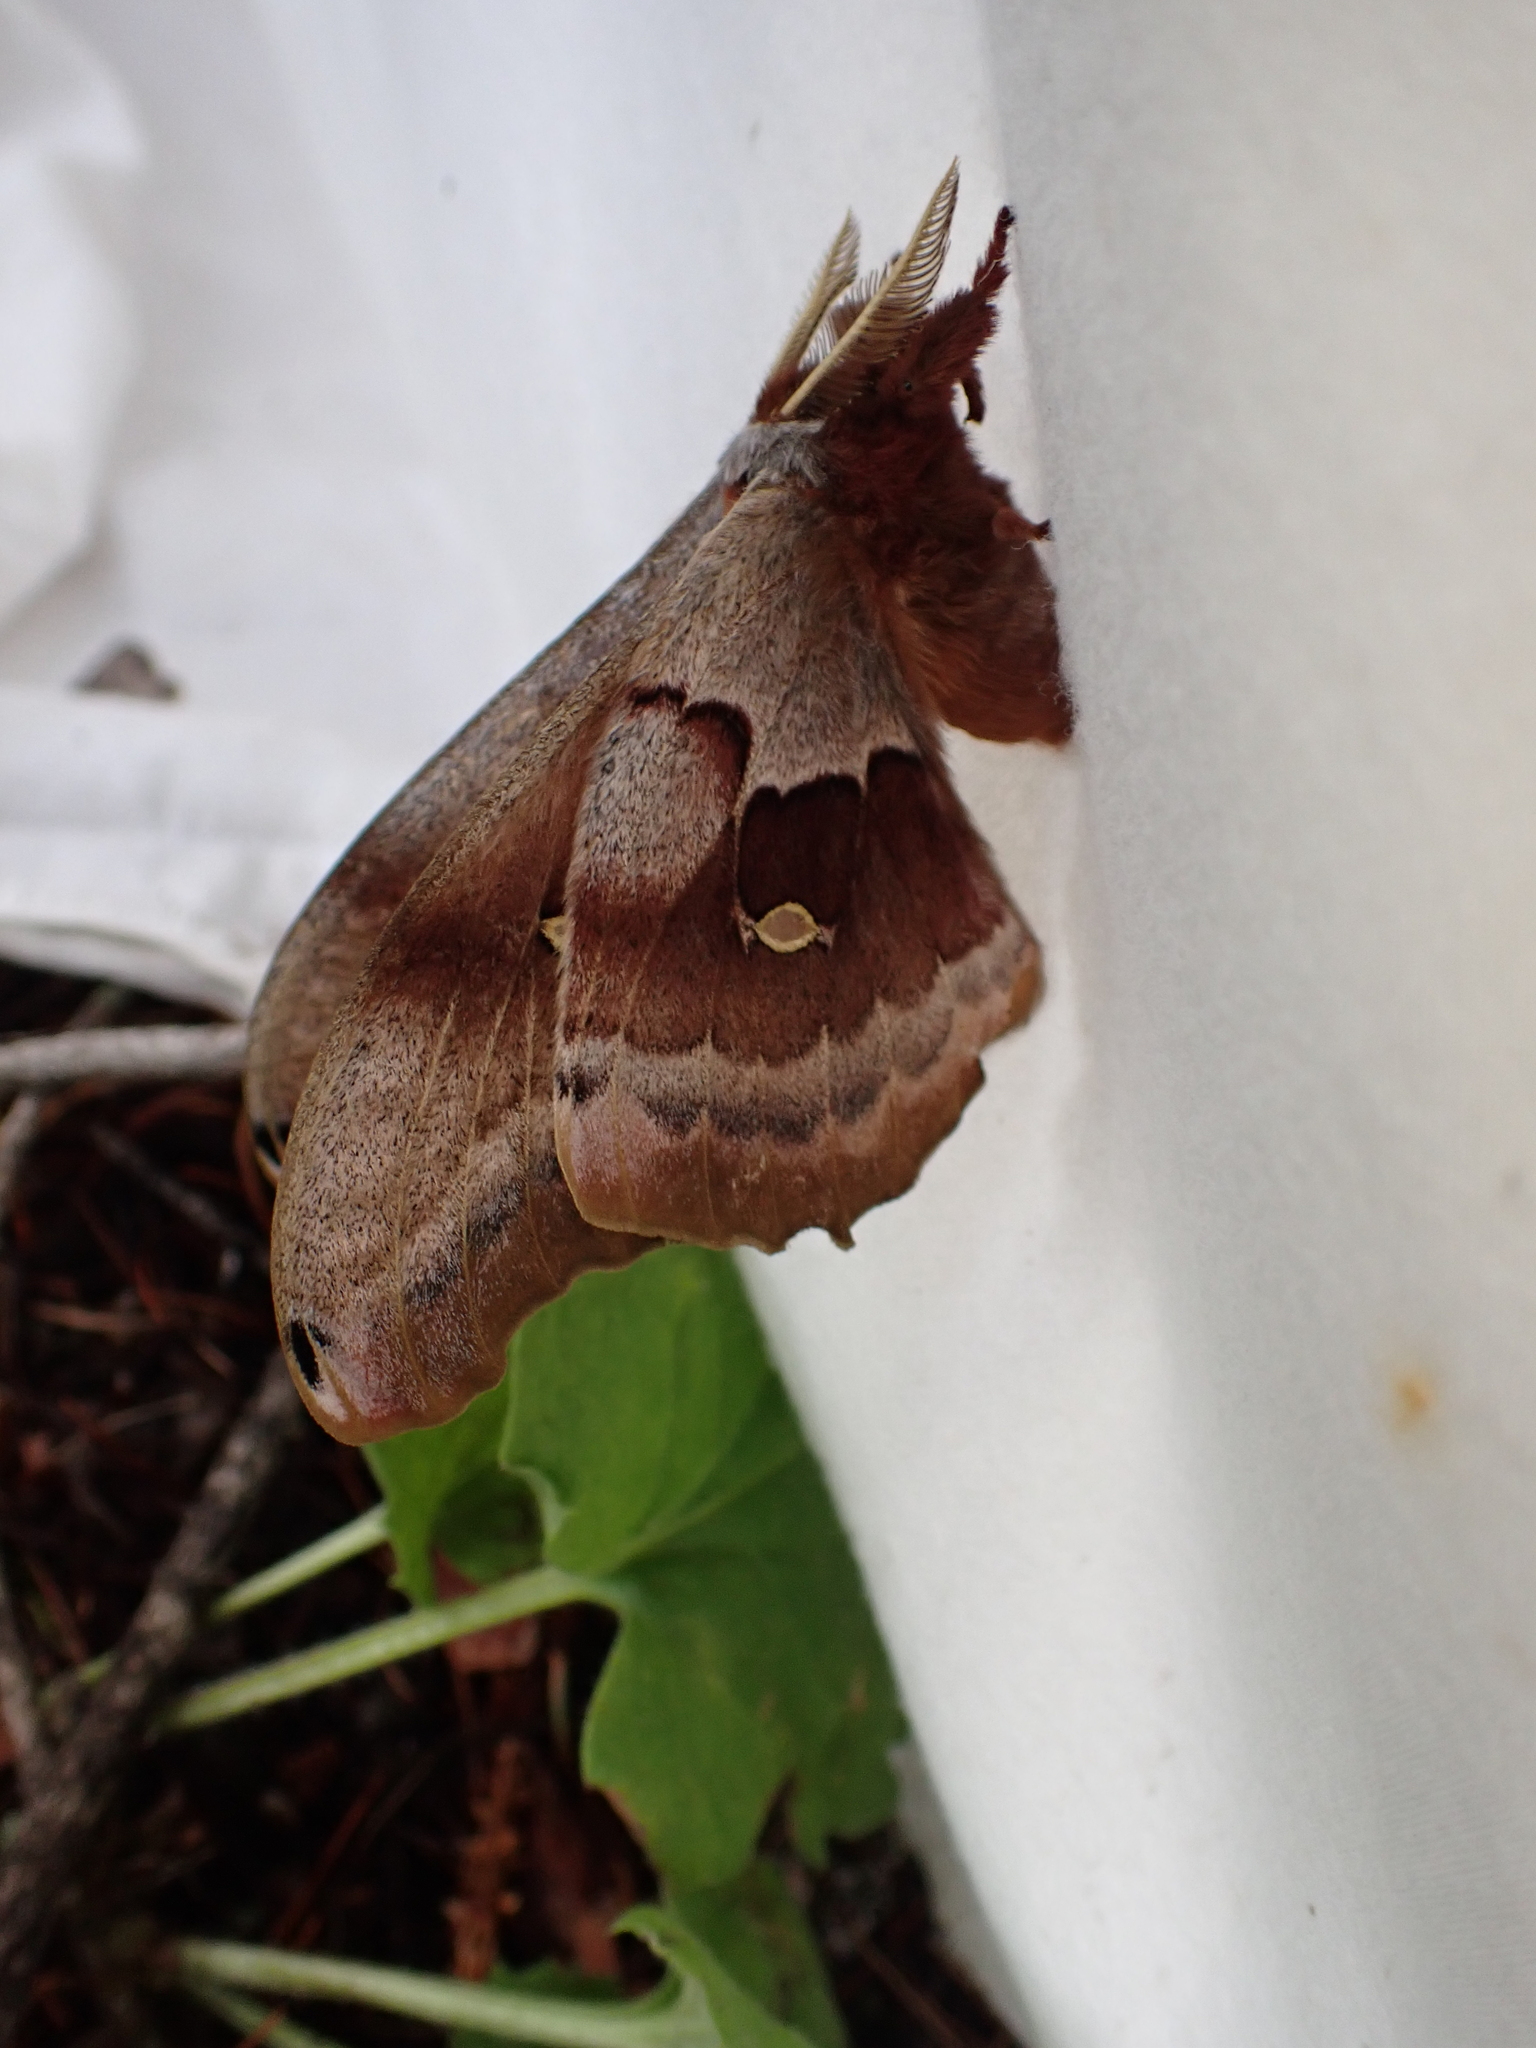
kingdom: Animalia
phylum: Arthropoda
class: Insecta
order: Lepidoptera
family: Saturniidae
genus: Antheraea
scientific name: Antheraea polyphemus
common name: Polyphemus moth
